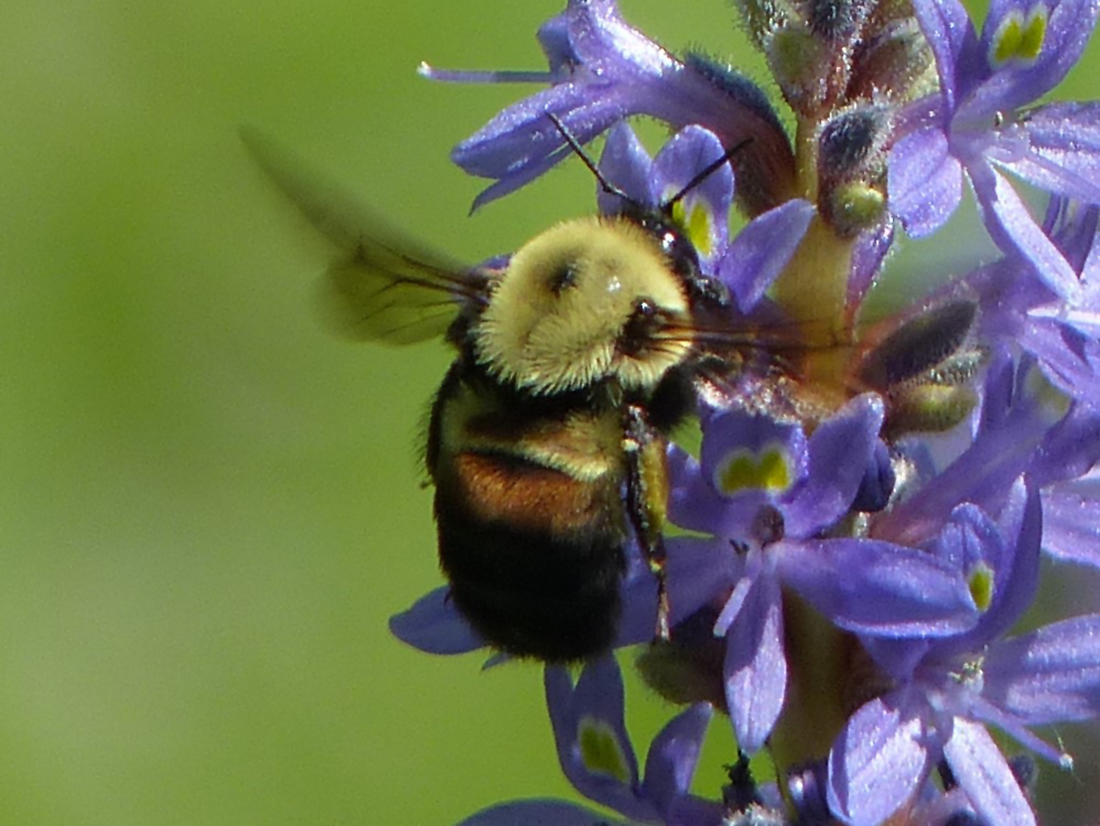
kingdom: Animalia
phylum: Arthropoda
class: Insecta
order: Hymenoptera
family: Apidae
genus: Bombus
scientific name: Bombus griseocollis
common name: Brown-belted bumble bee
